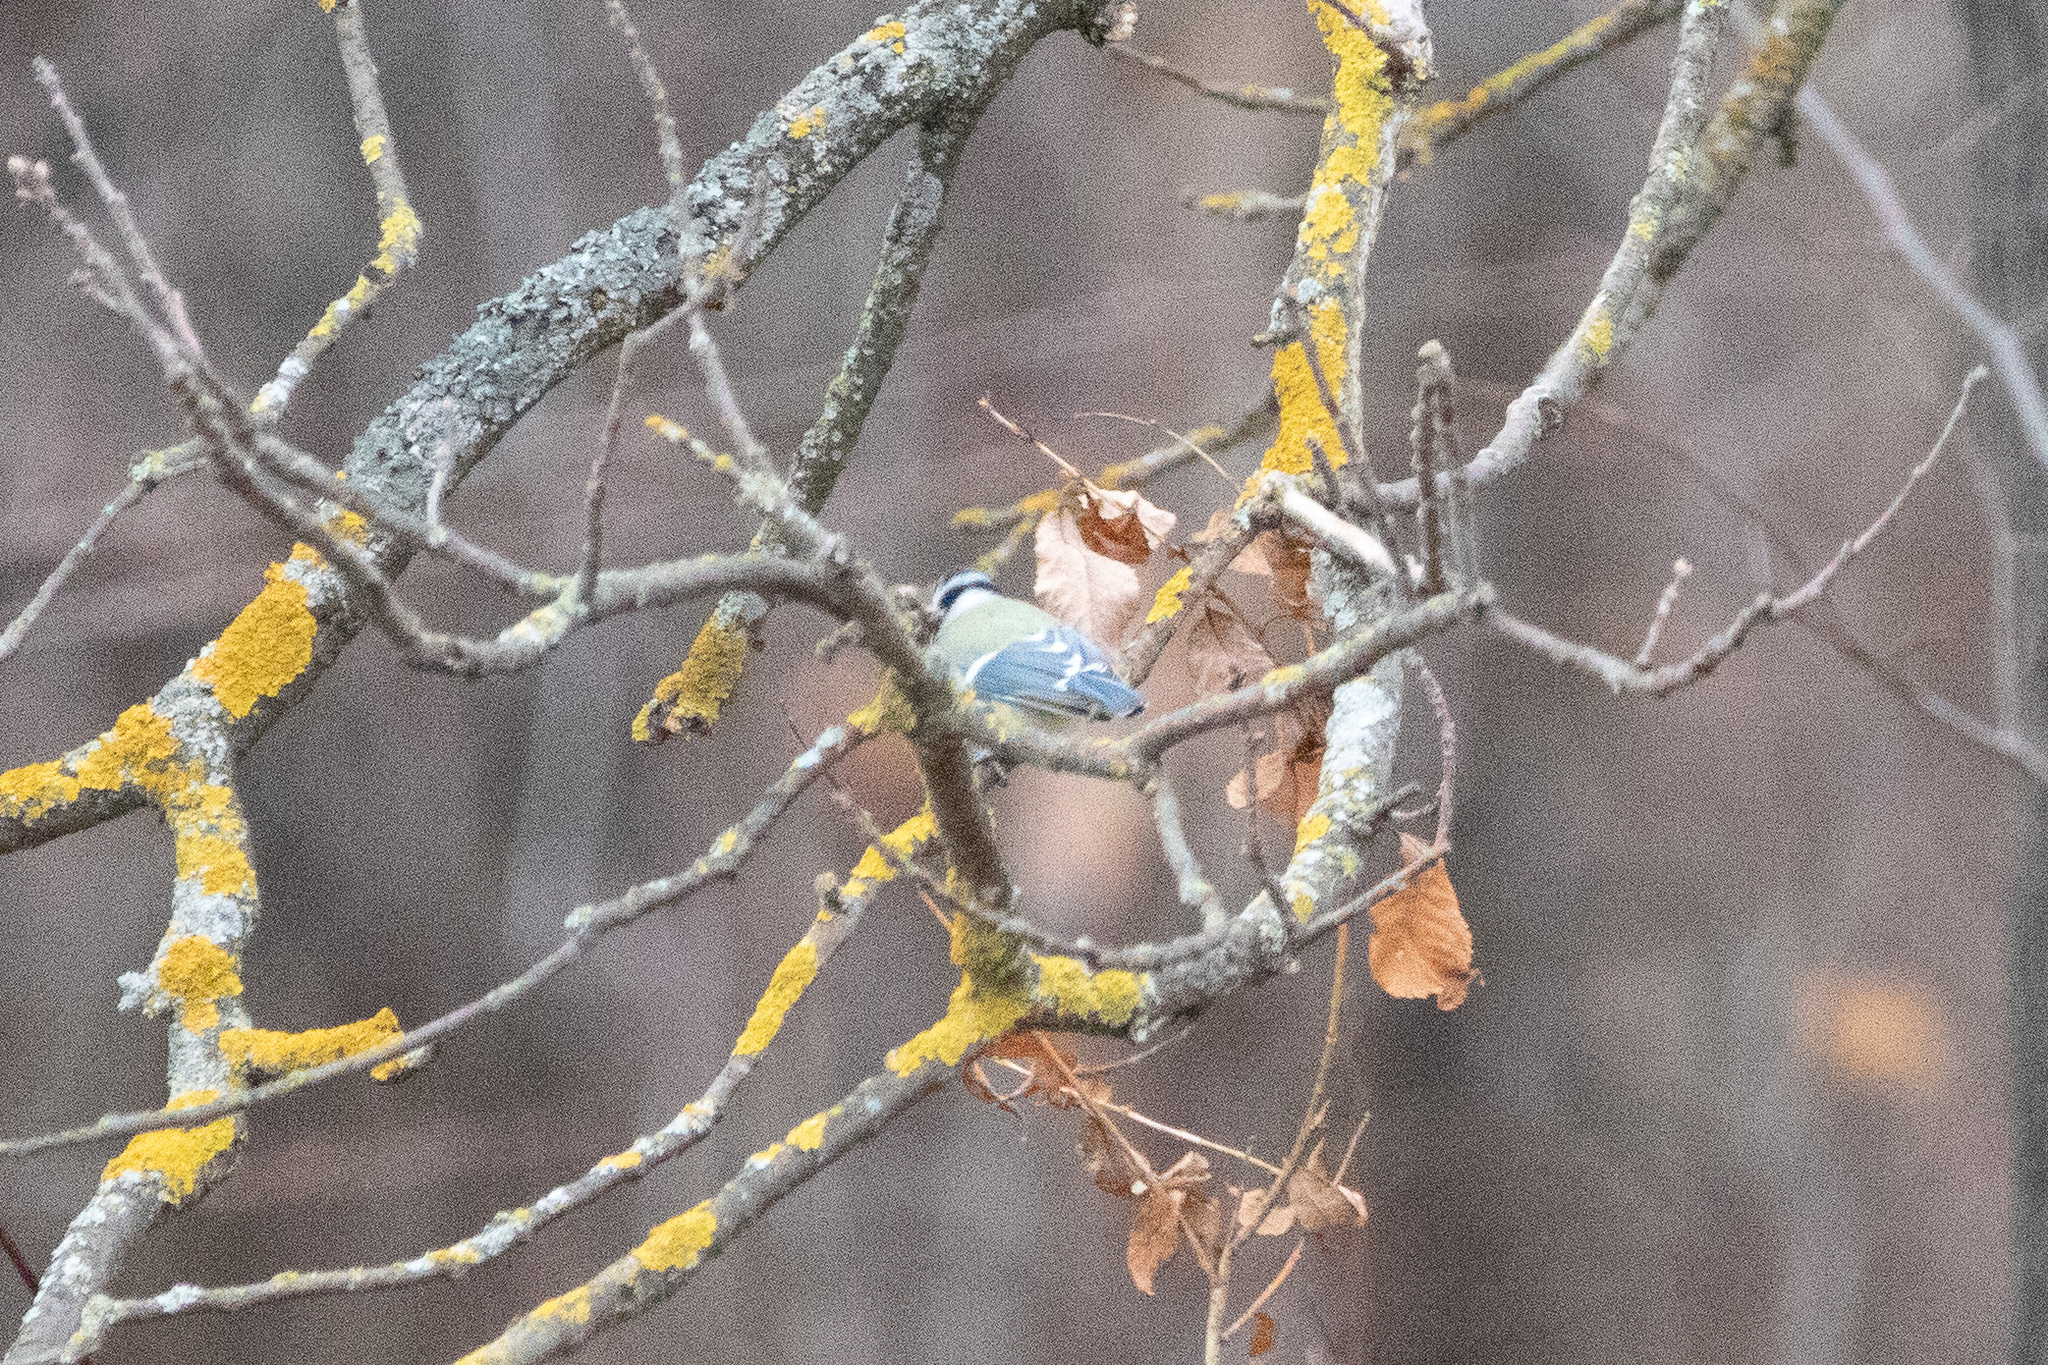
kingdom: Animalia
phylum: Chordata
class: Aves
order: Passeriformes
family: Paridae
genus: Cyanistes
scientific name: Cyanistes caeruleus
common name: Eurasian blue tit
